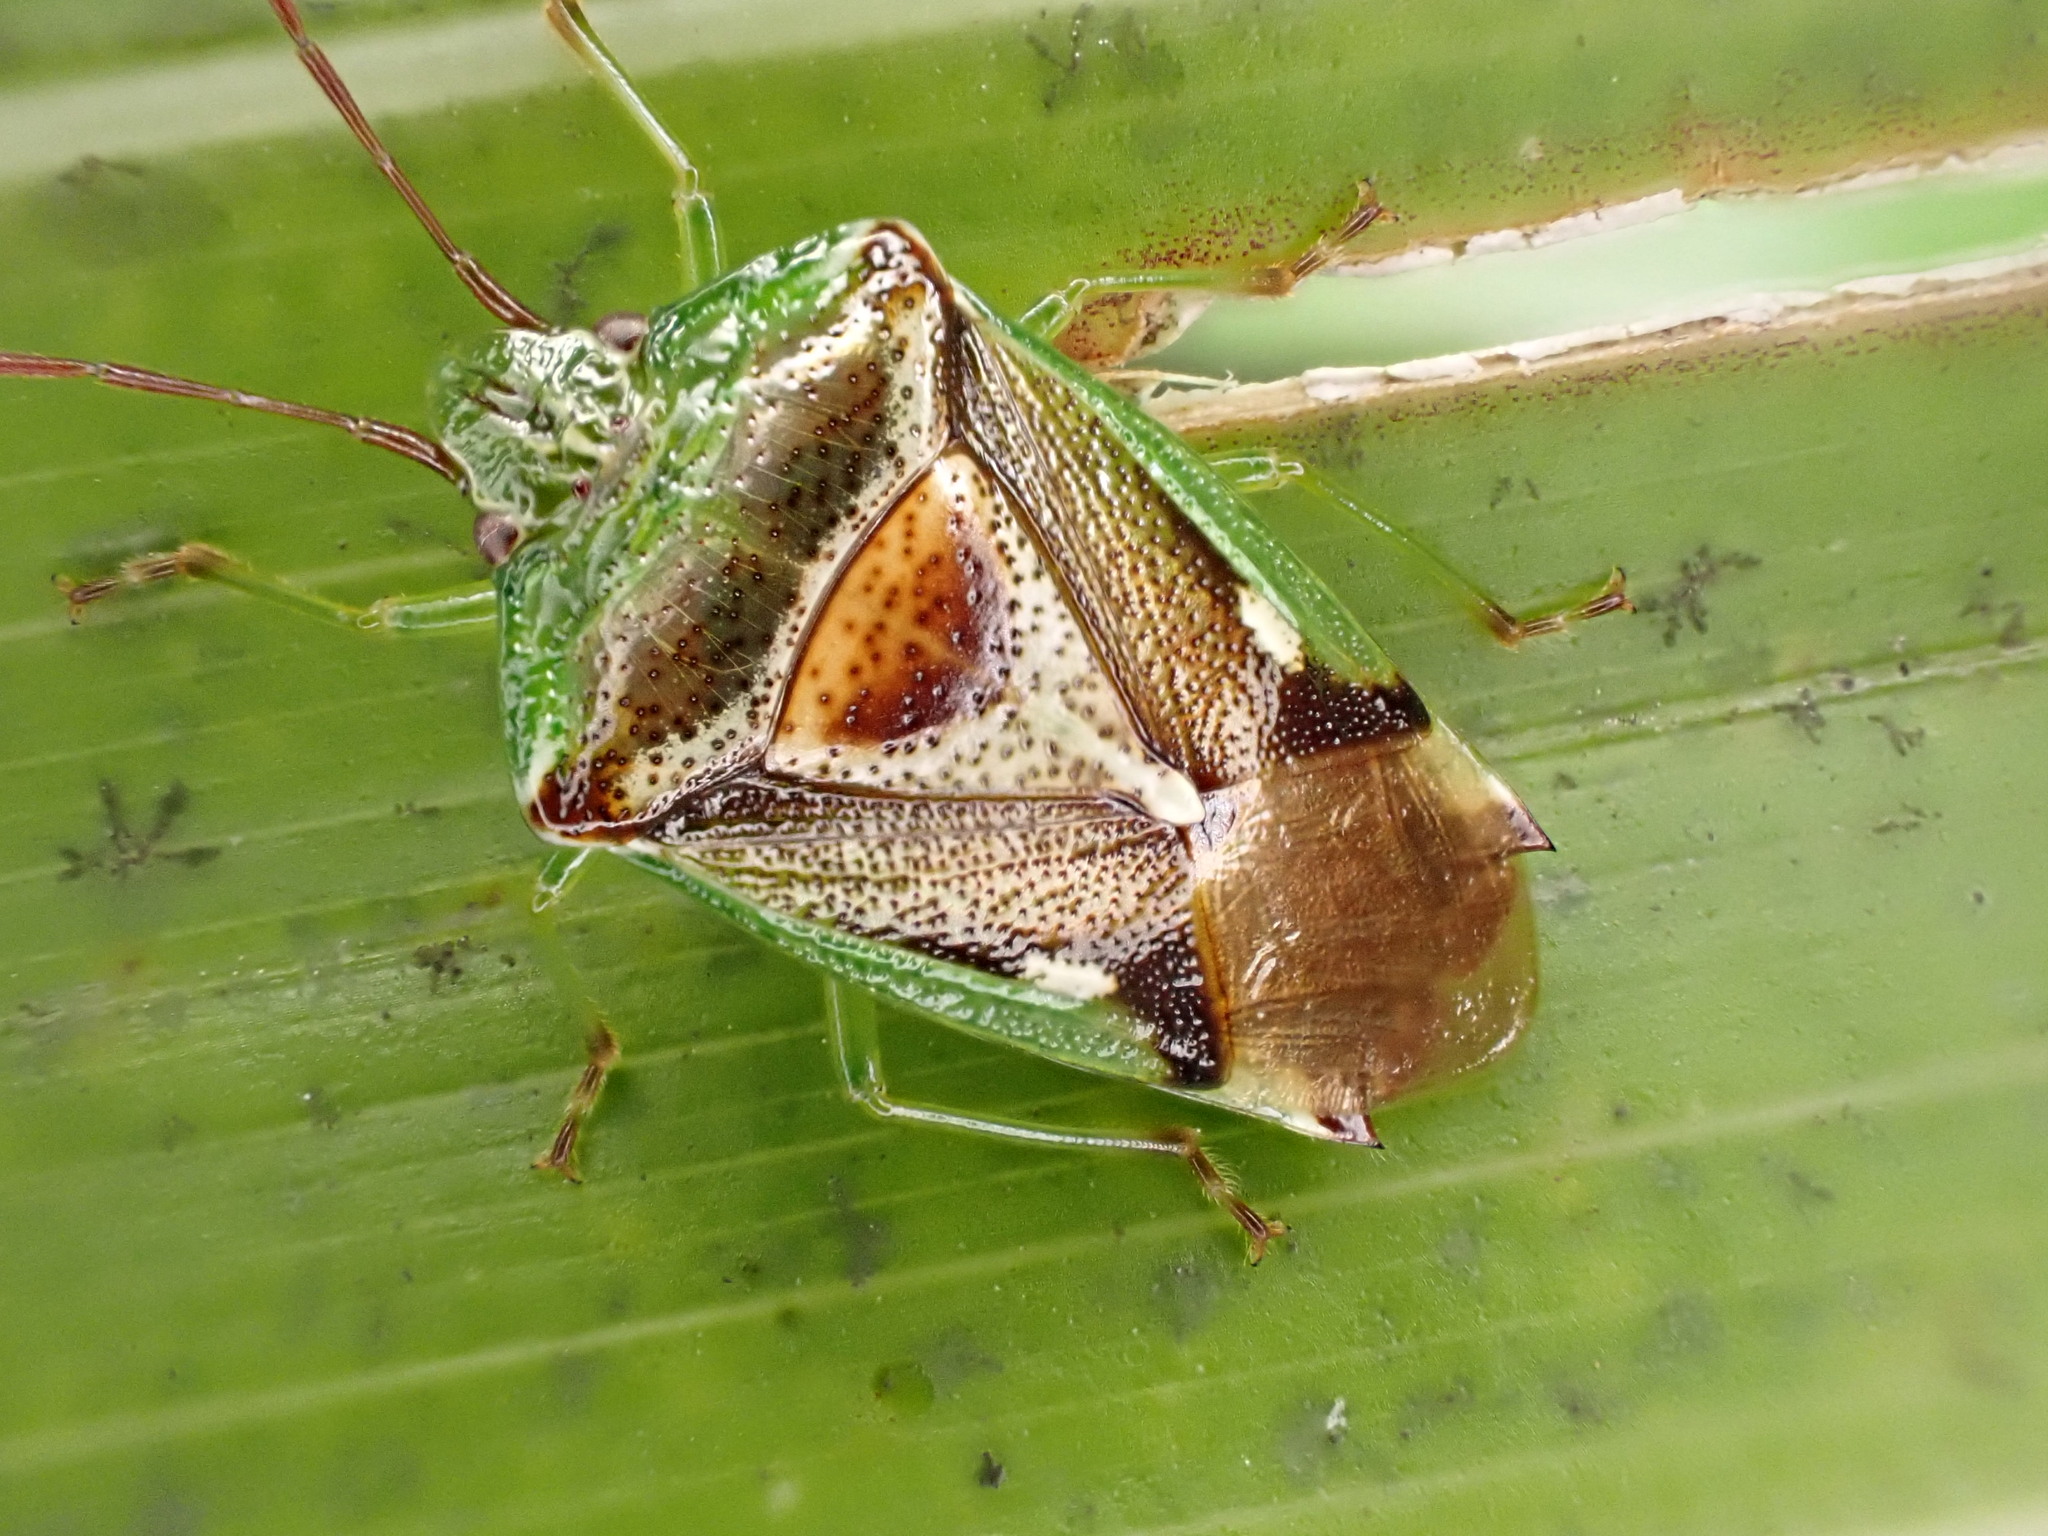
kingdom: Animalia
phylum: Arthropoda
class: Insecta
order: Hemiptera
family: Acanthosomatidae
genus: Oncacontias
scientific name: Oncacontias vittatus
